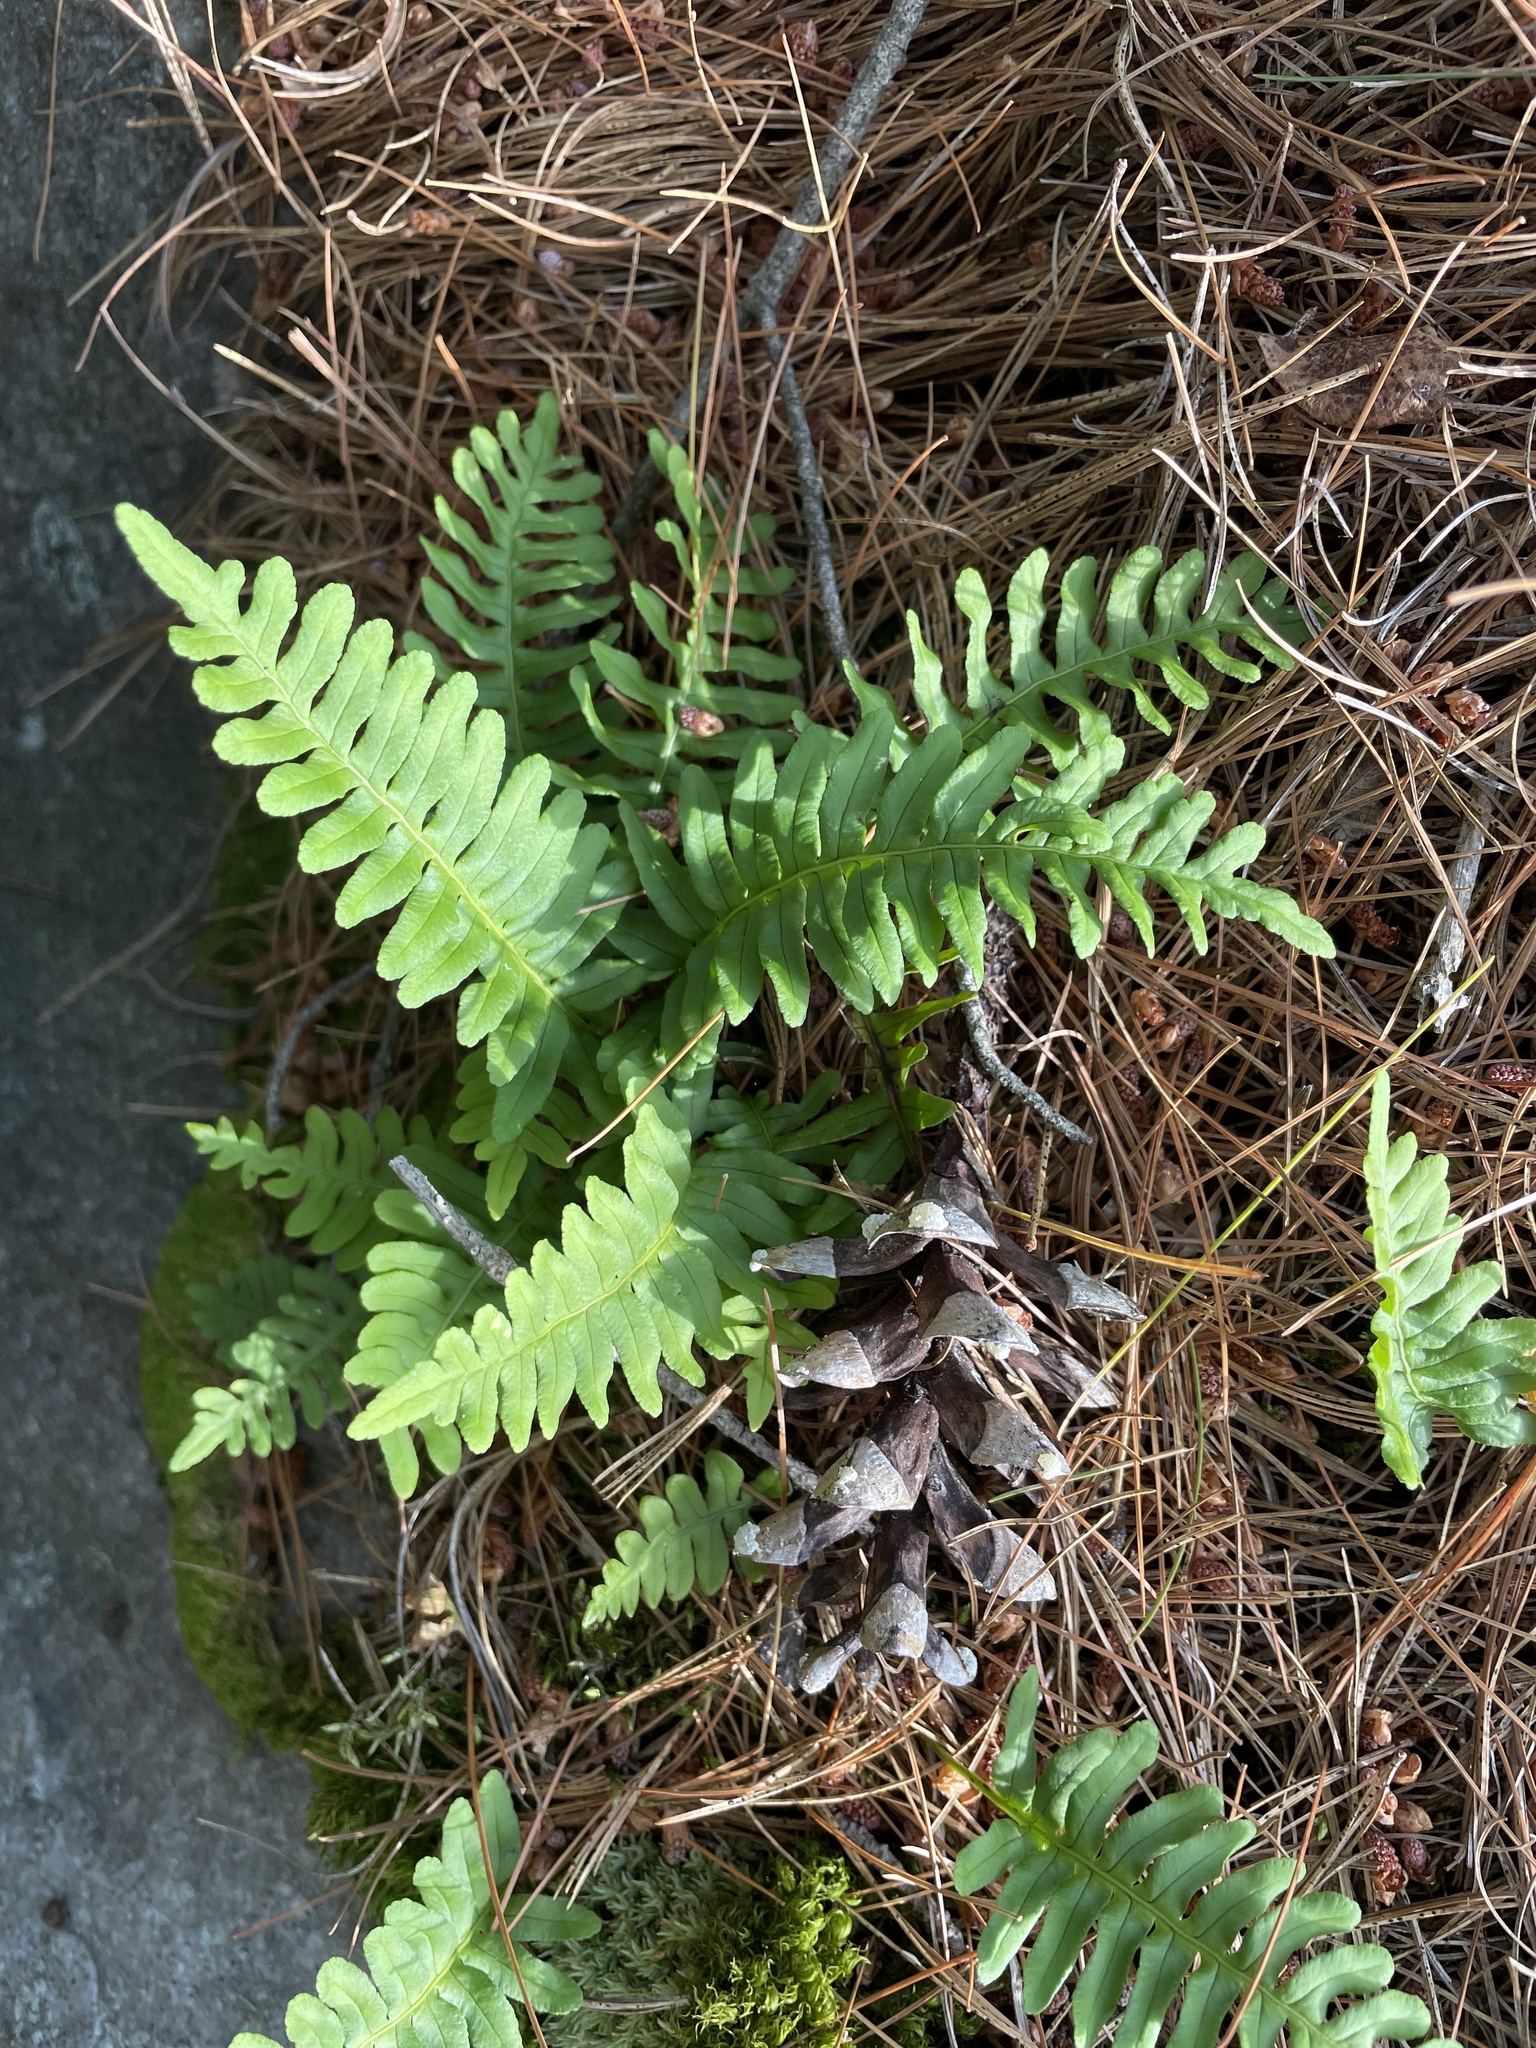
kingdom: Plantae
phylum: Tracheophyta
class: Polypodiopsida
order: Polypodiales
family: Polypodiaceae
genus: Polypodium
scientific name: Polypodium virginianum
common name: American wall fern
